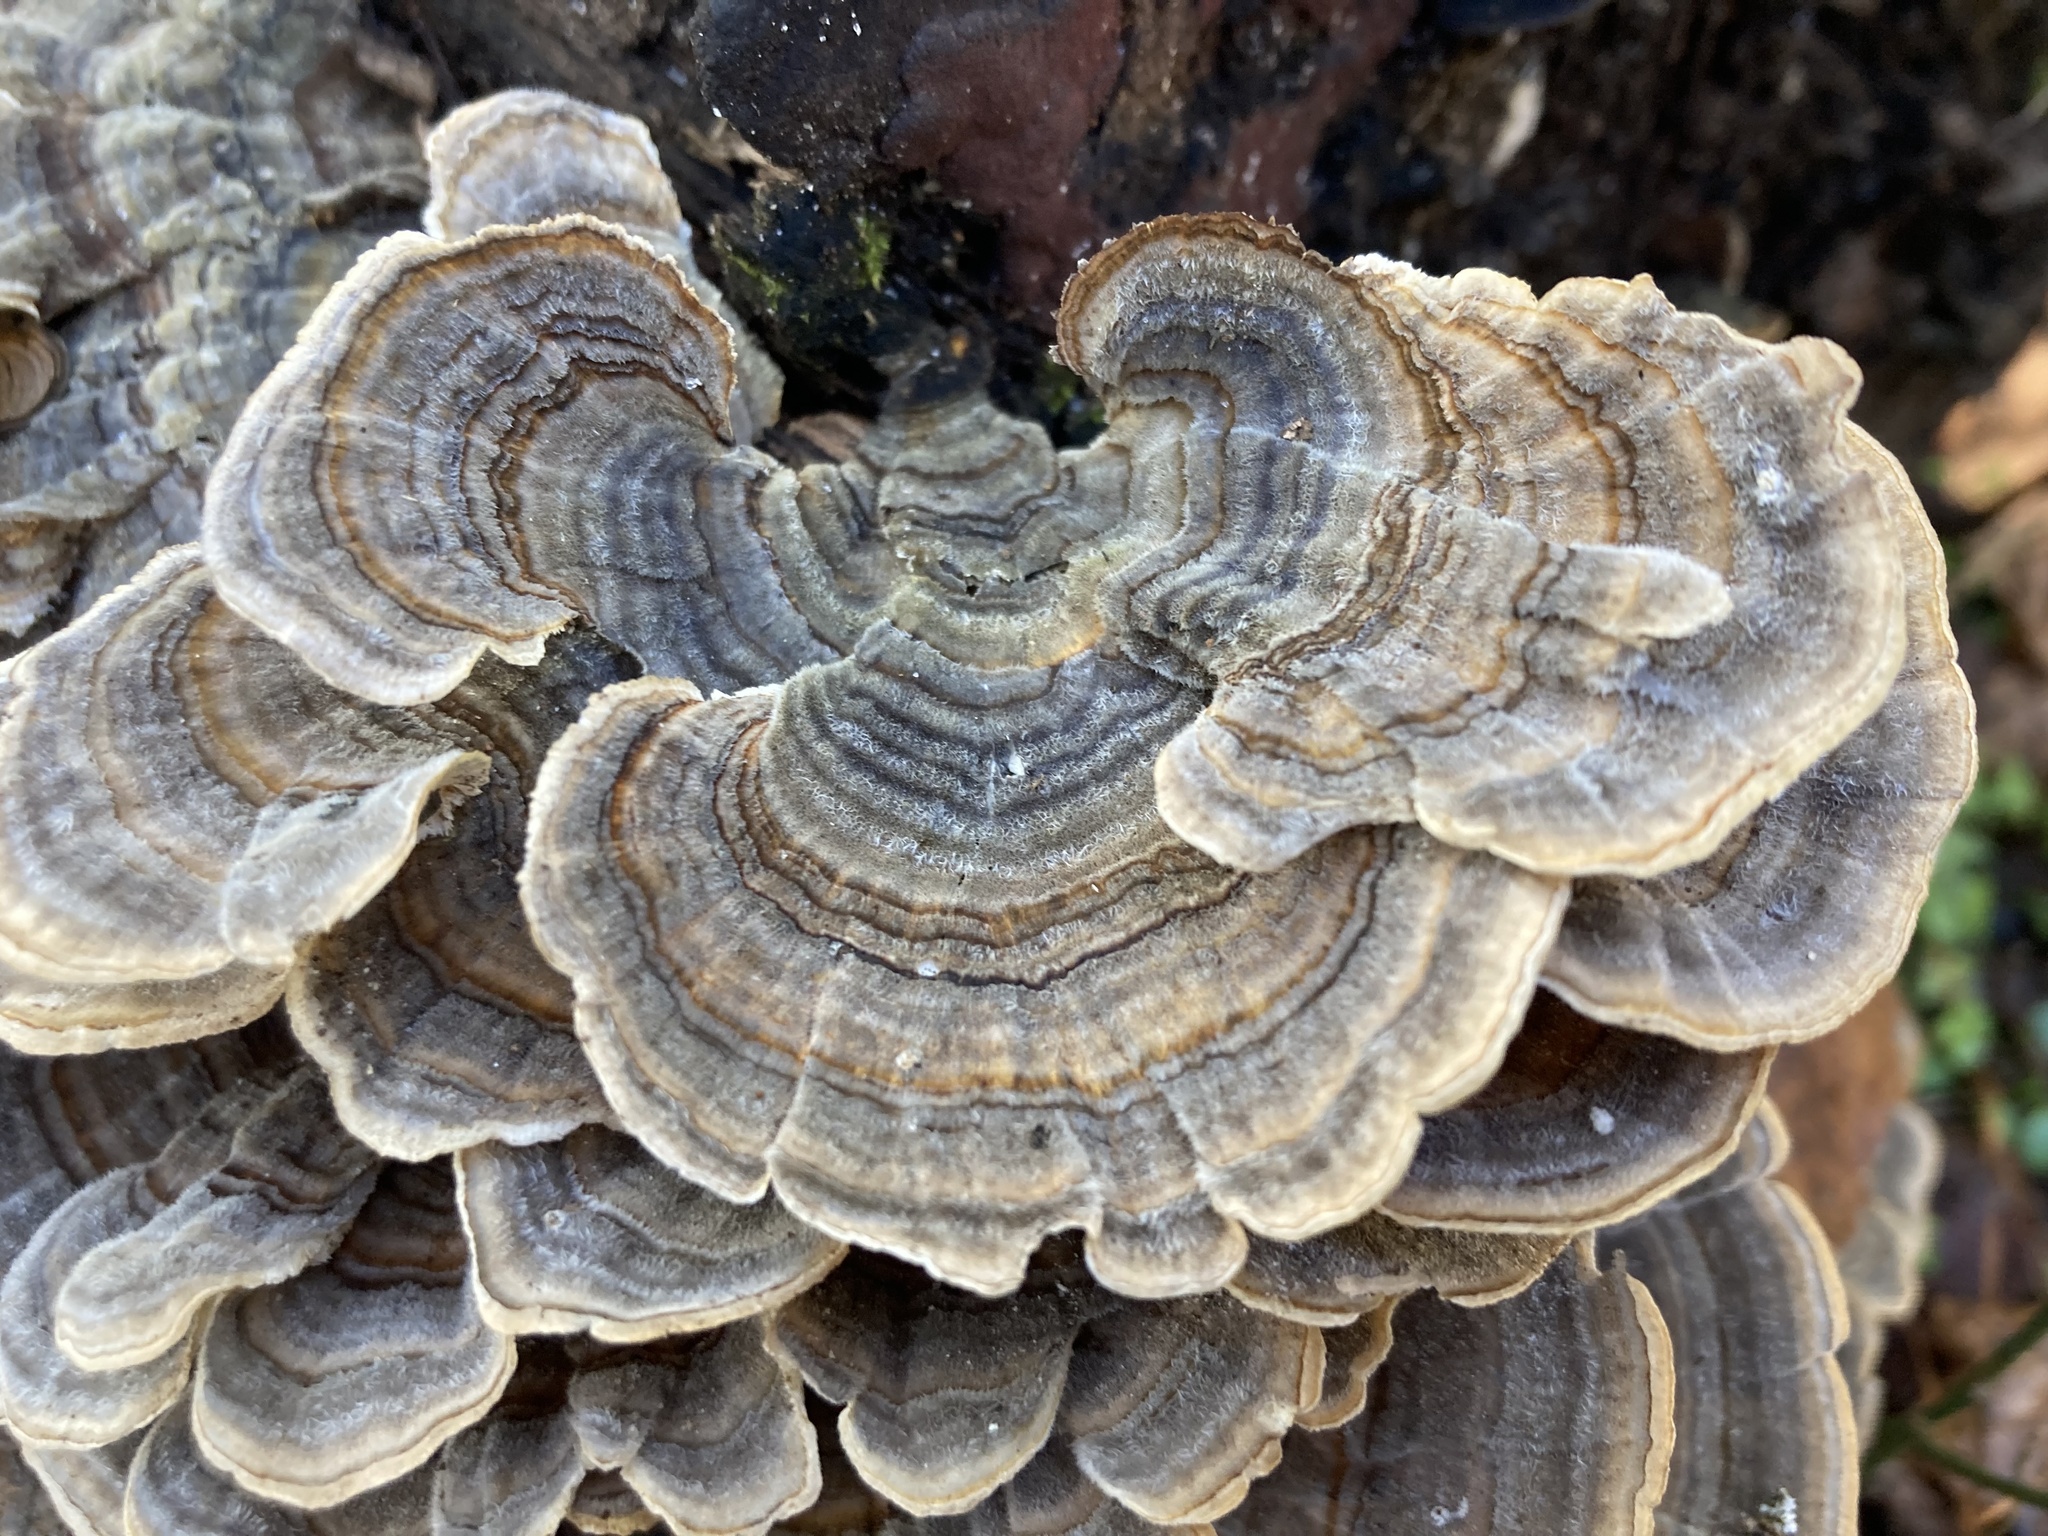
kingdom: Fungi
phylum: Basidiomycota
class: Agaricomycetes
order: Polyporales
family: Polyporaceae
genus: Trametes
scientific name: Trametes versicolor
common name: Turkeytail
